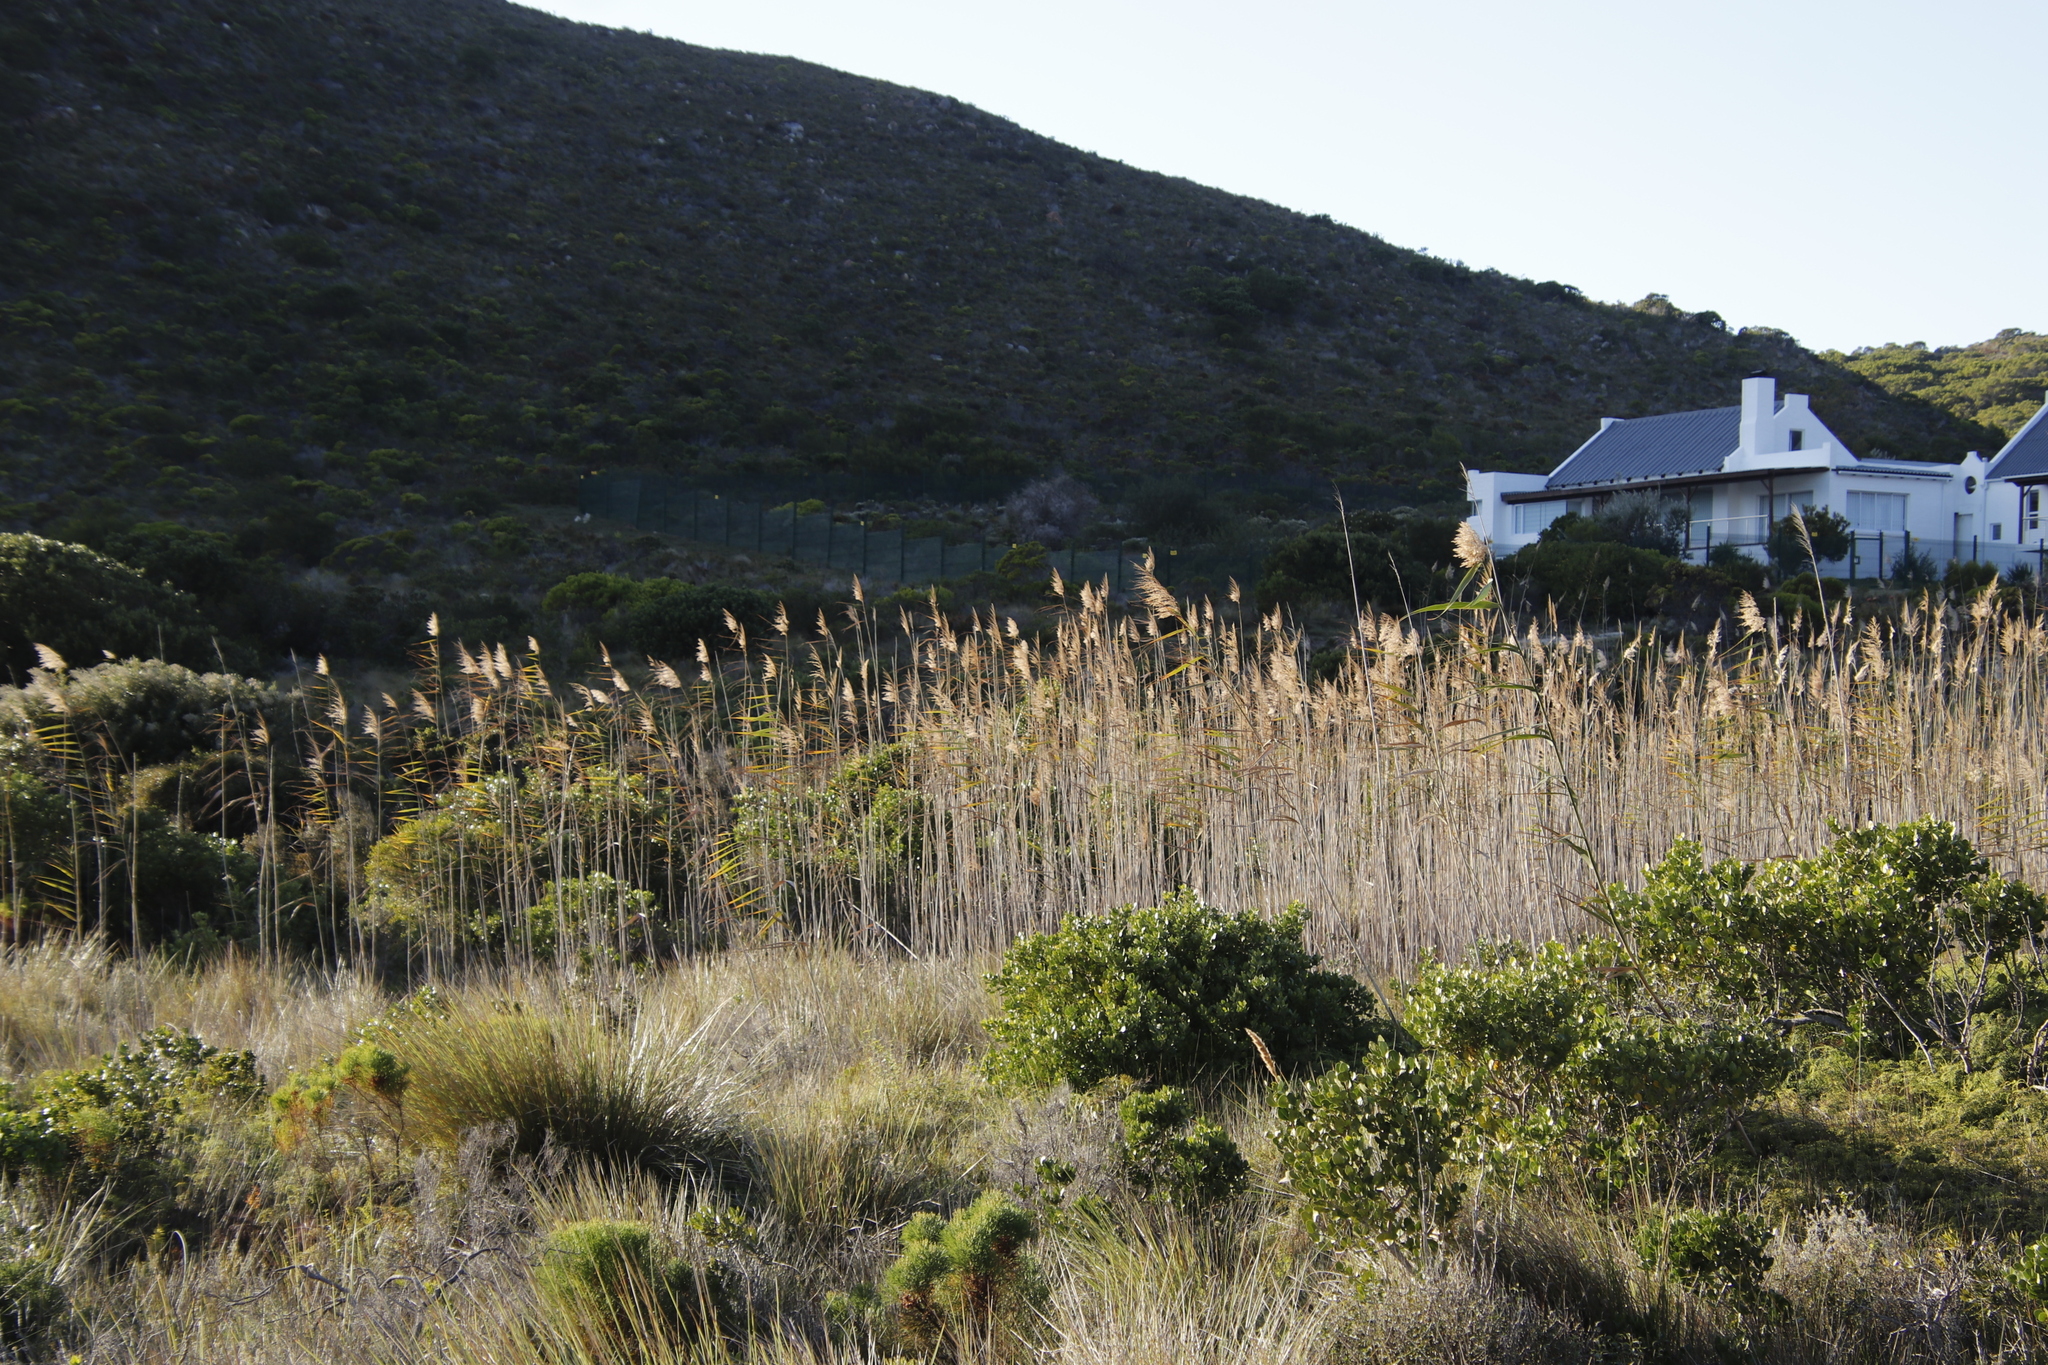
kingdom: Plantae
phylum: Tracheophyta
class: Liliopsida
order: Poales
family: Poaceae
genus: Phragmites
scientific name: Phragmites australis
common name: Common reed
